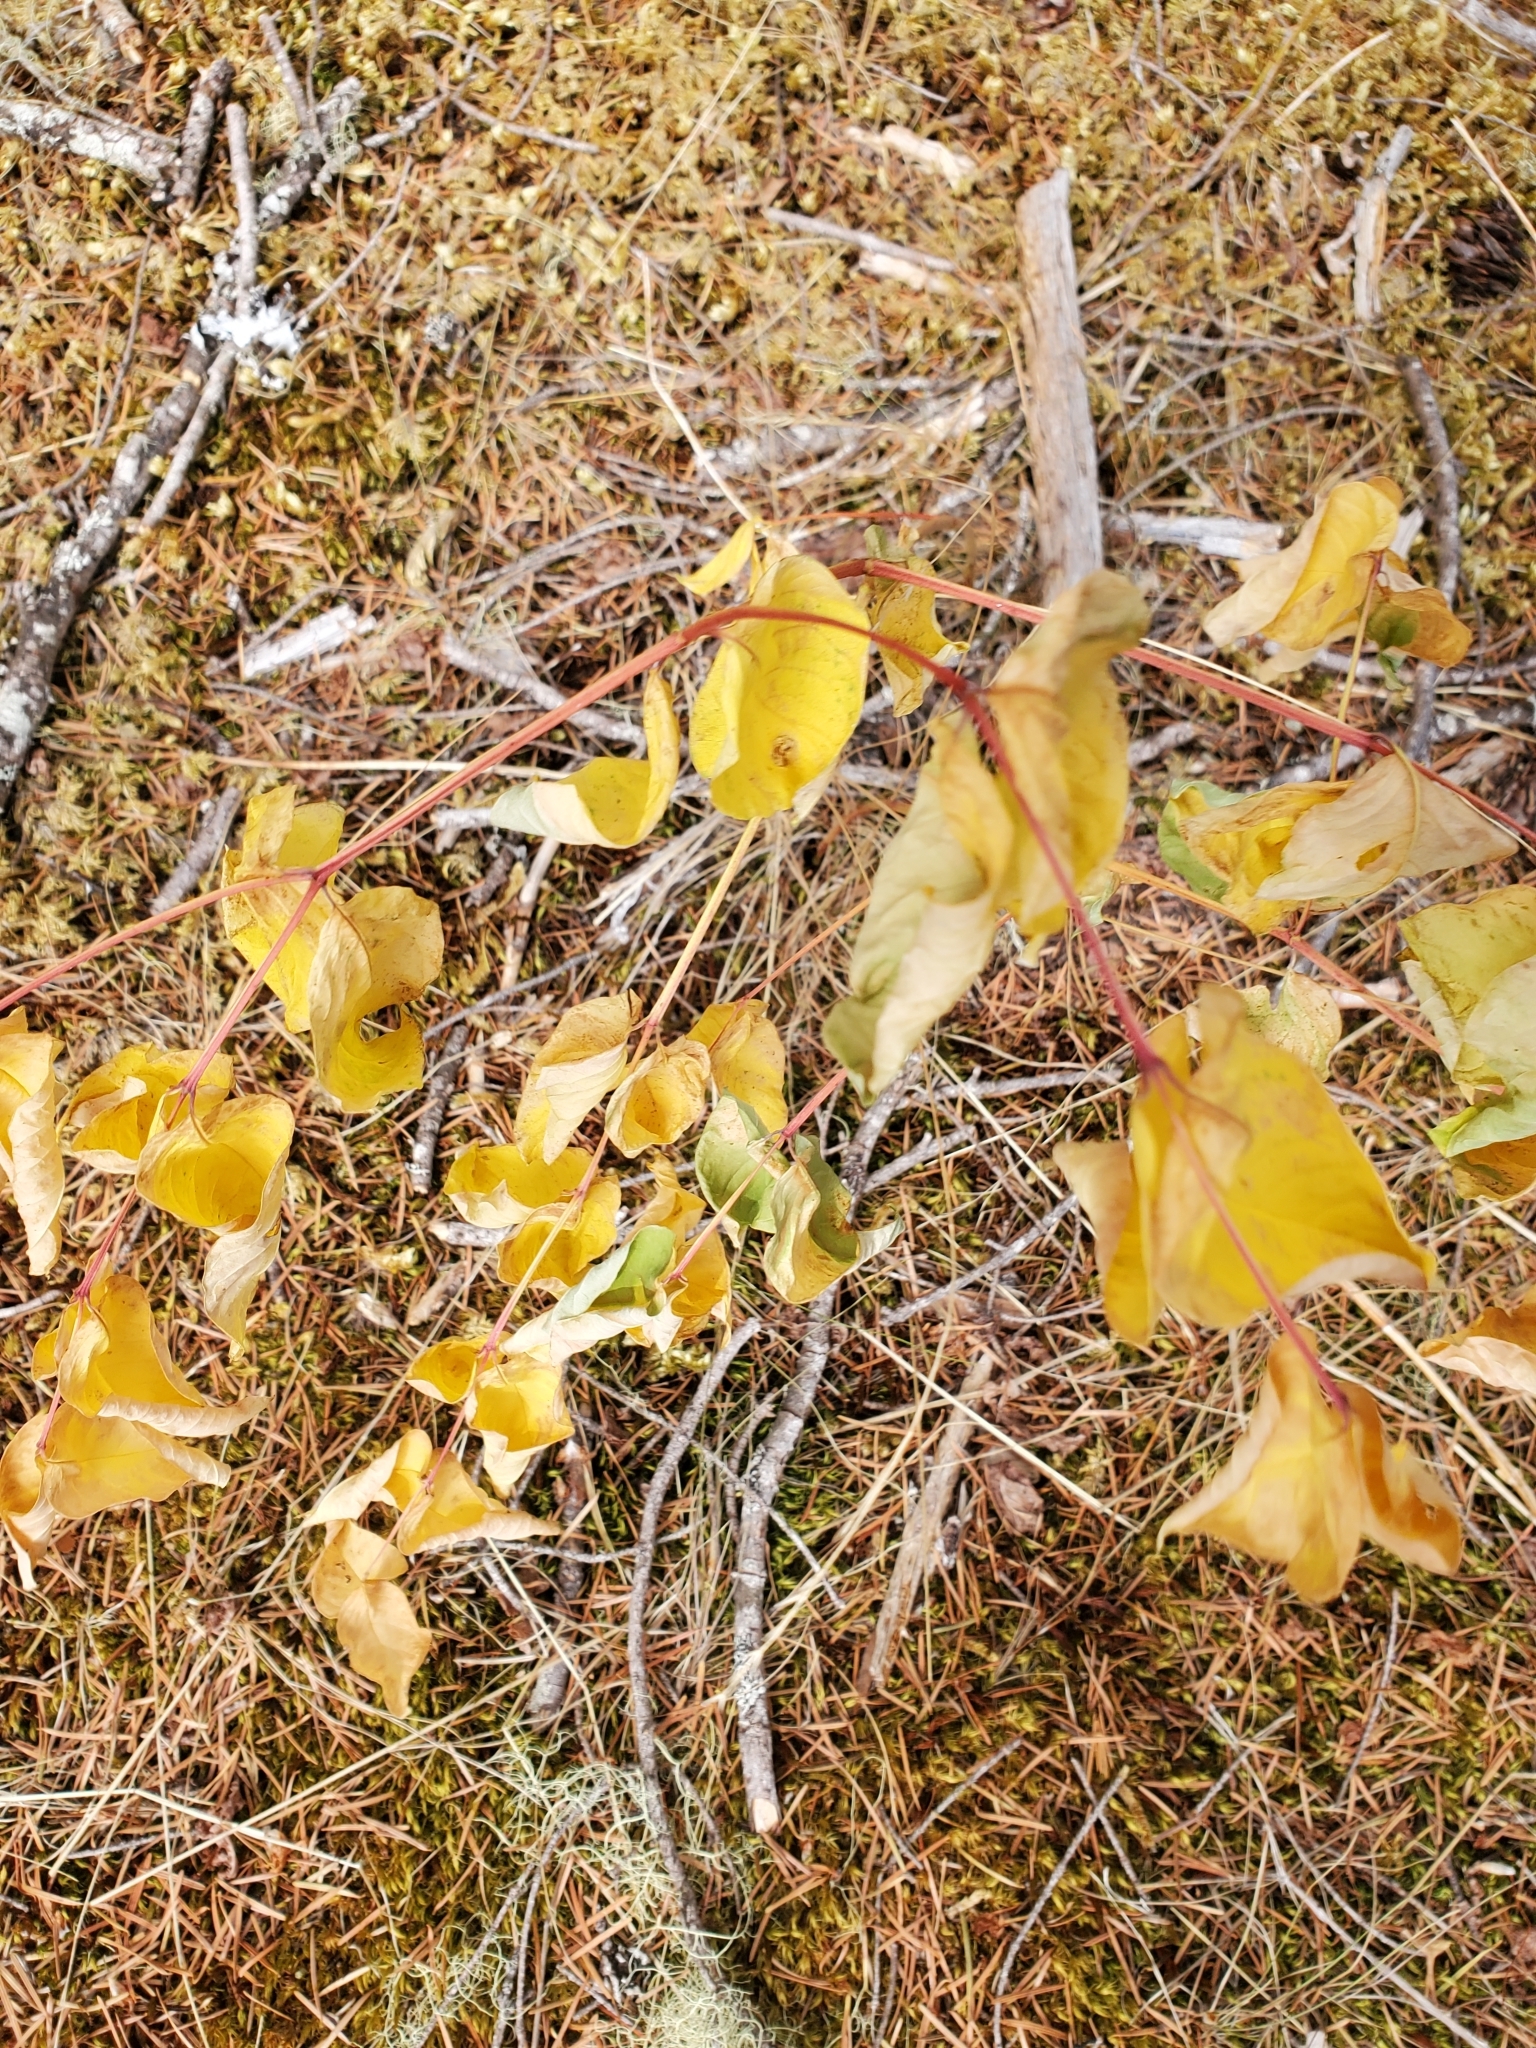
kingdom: Plantae
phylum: Tracheophyta
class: Magnoliopsida
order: Gentianales
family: Apocynaceae
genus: Apocynum
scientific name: Apocynum androsaemifolium
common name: Spreading dogbane
